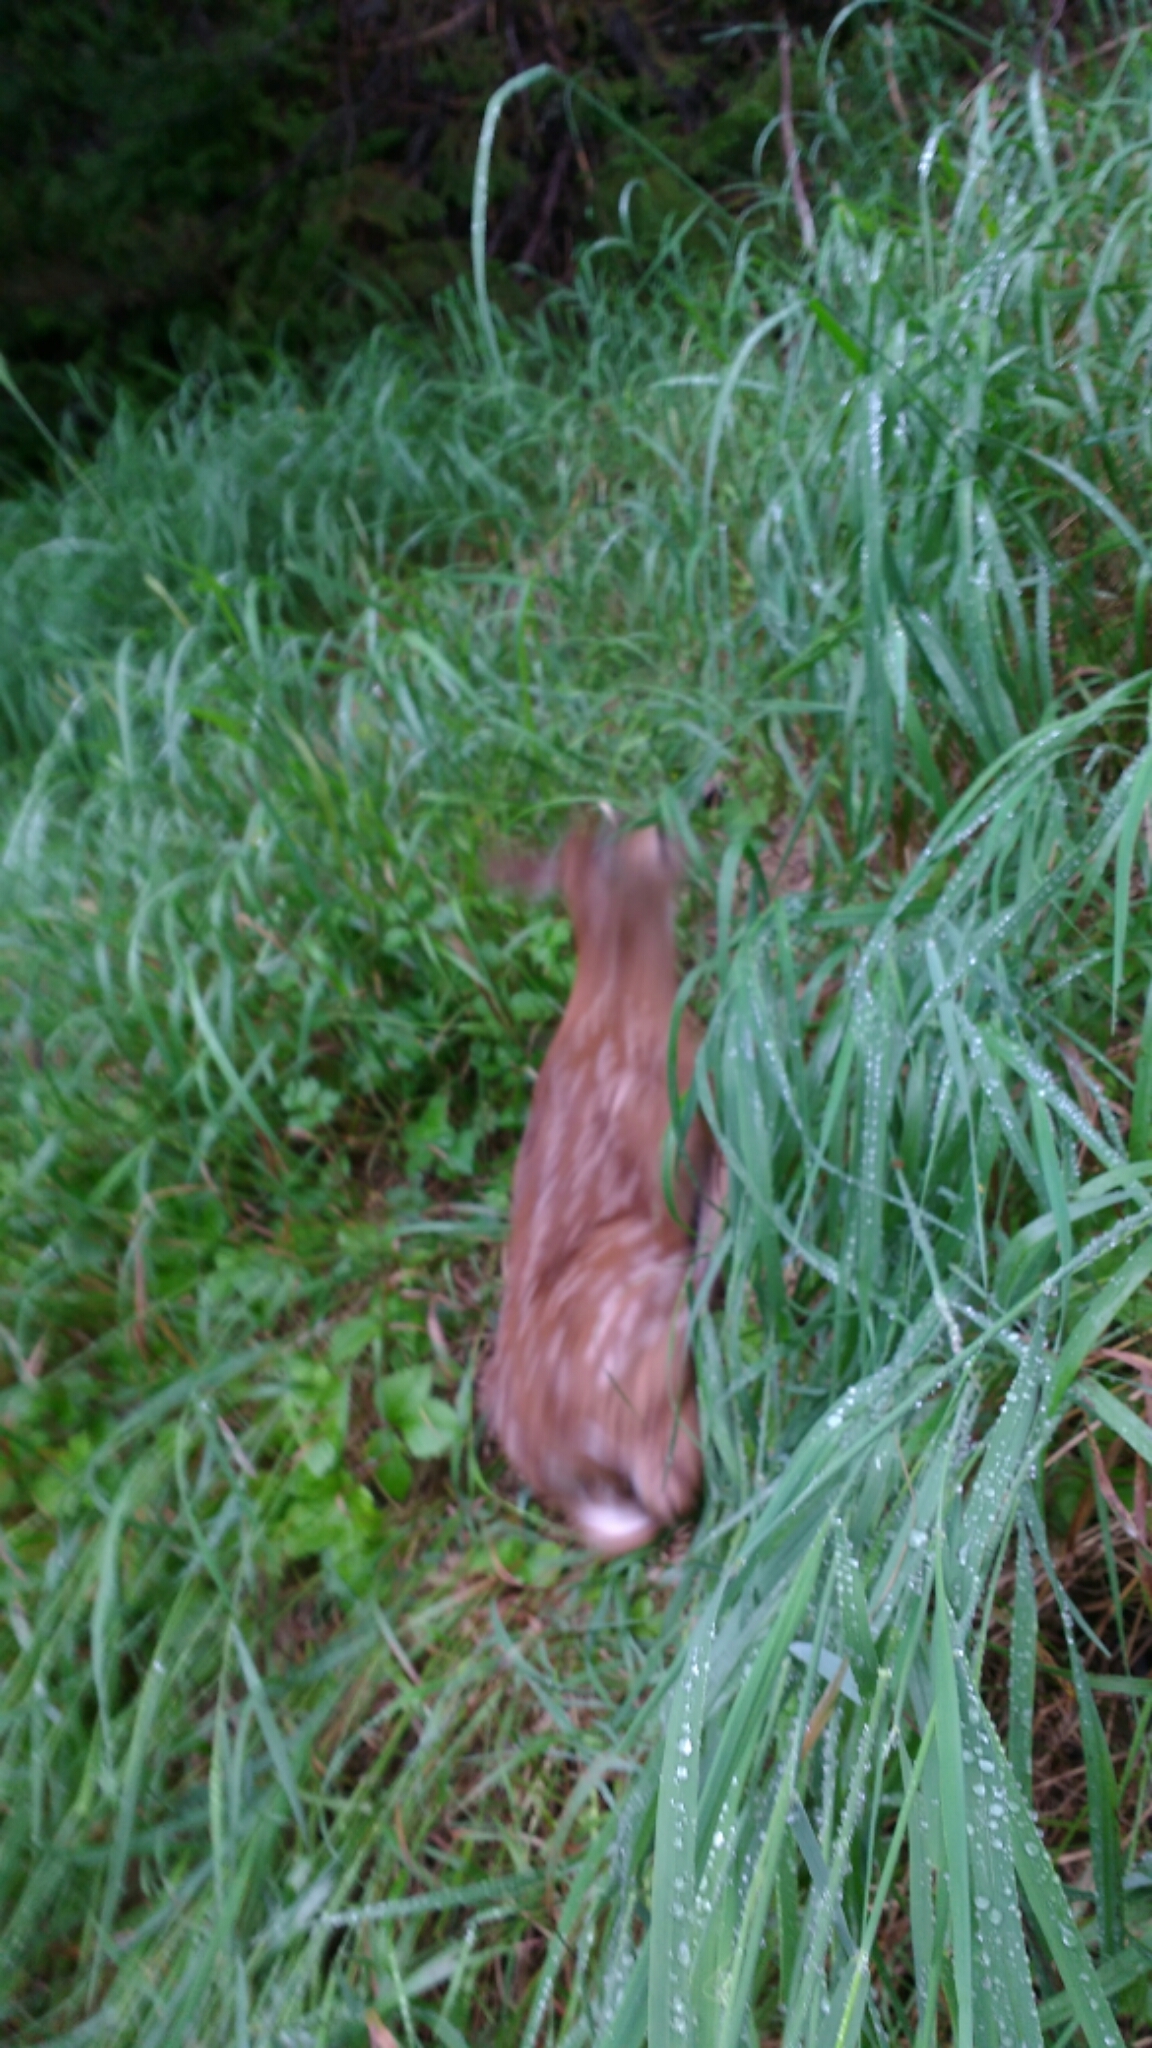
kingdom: Animalia
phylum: Chordata
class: Mammalia
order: Artiodactyla
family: Cervidae
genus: Odocoileus
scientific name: Odocoileus virginianus
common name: White-tailed deer
